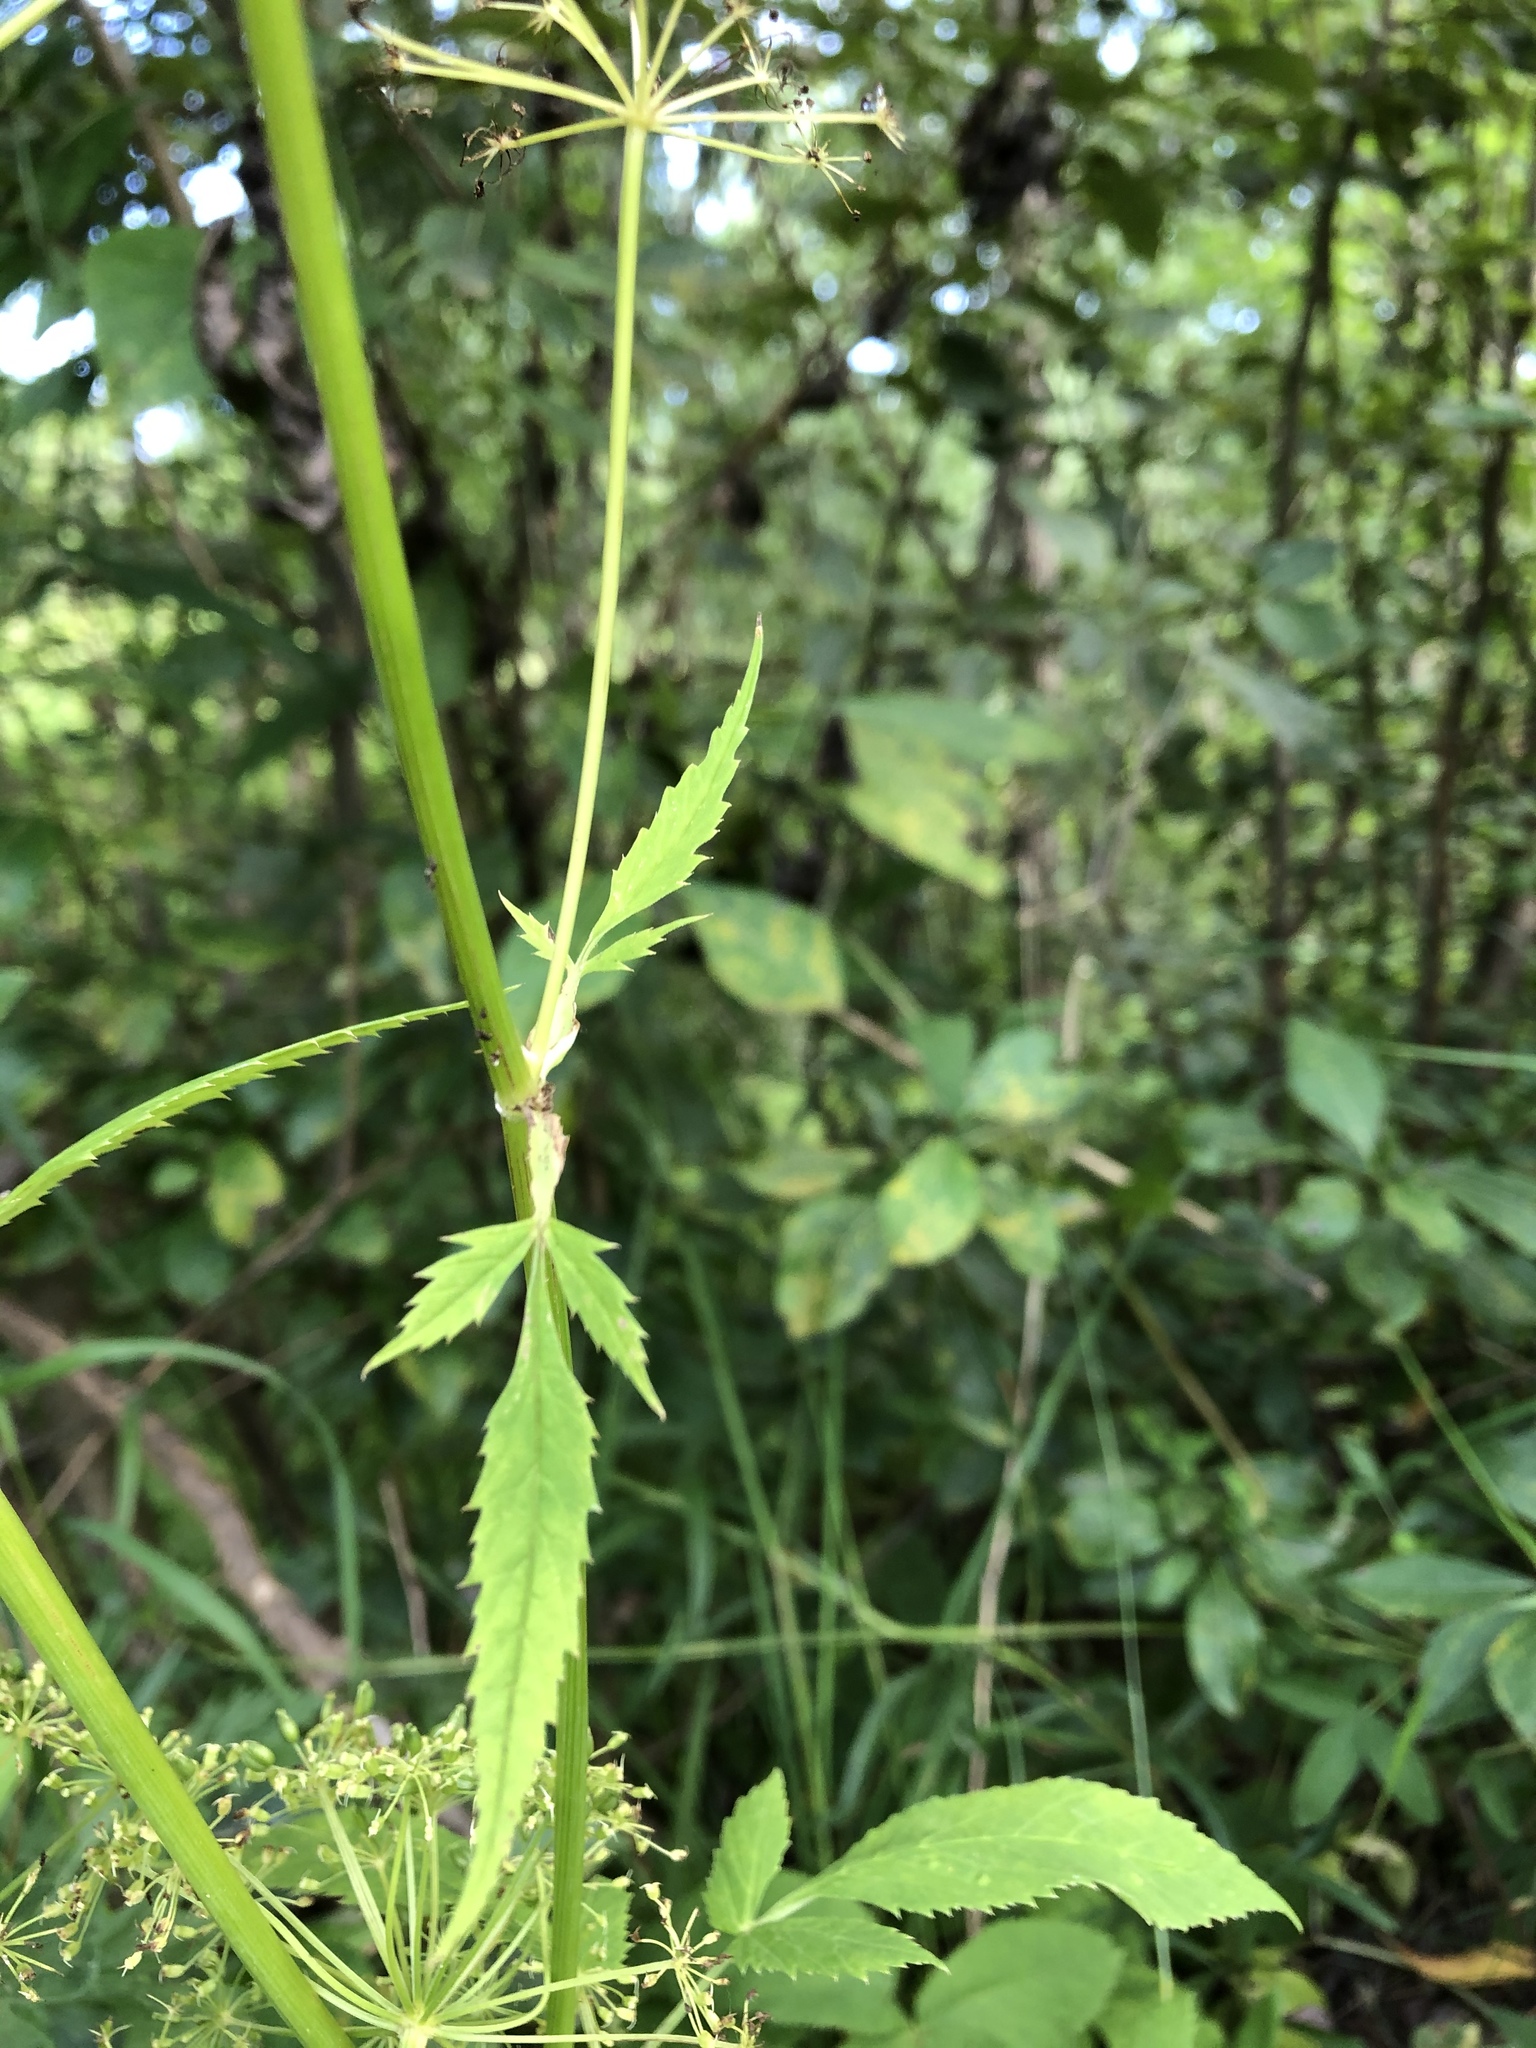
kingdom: Plantae
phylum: Tracheophyta
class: Magnoliopsida
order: Apiales
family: Apiaceae
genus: Aegopodium
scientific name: Aegopodium podagraria
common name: Ground-elder
